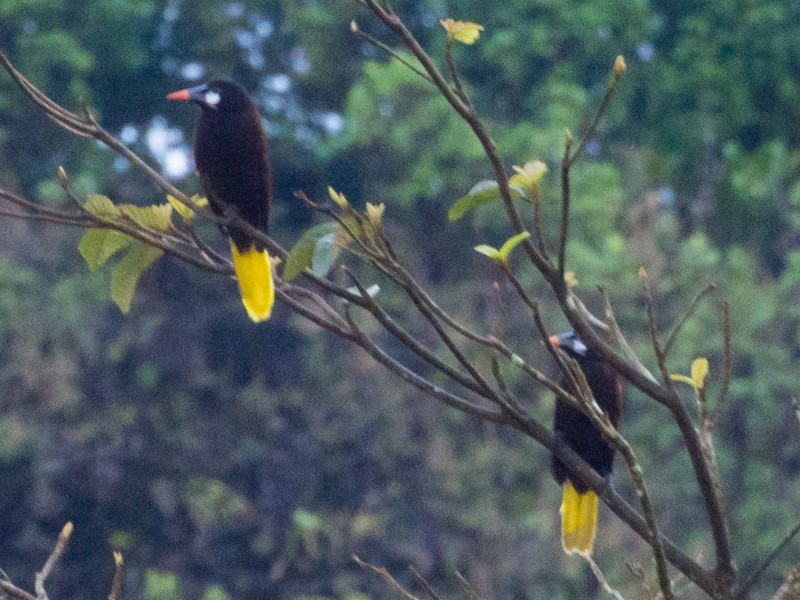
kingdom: Animalia
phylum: Chordata
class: Aves
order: Passeriformes
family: Icteridae
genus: Psarocolius
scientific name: Psarocolius montezuma
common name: Montezuma oropendola
